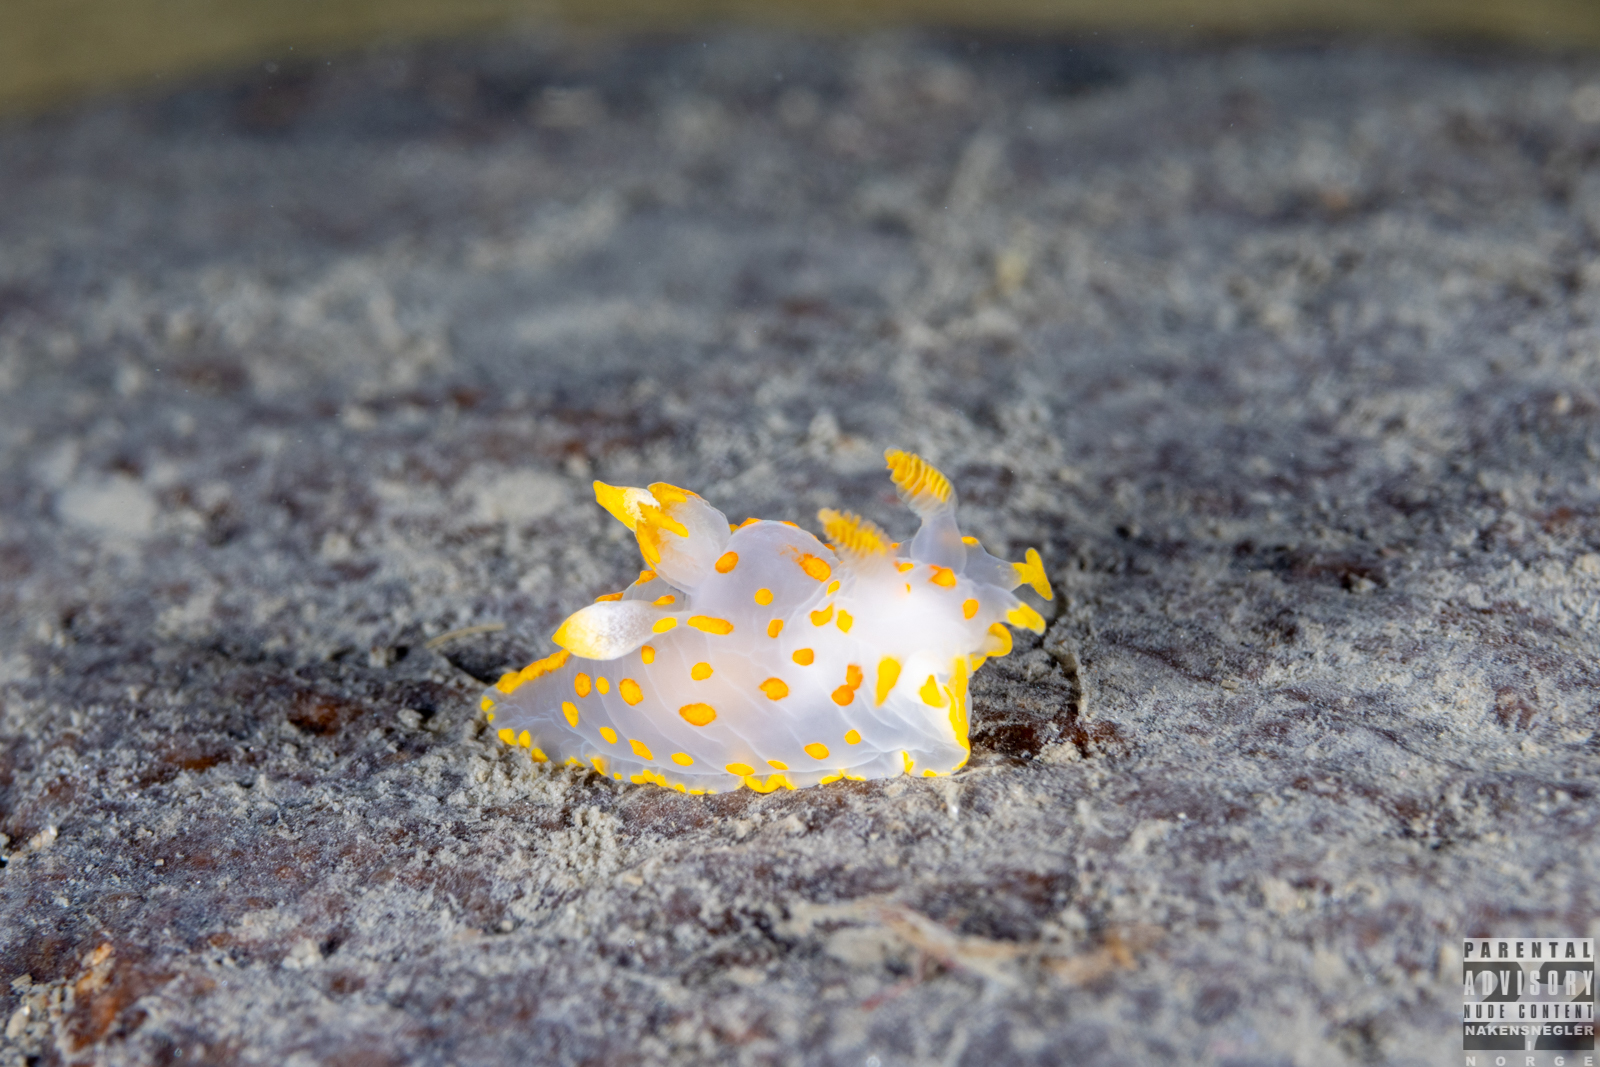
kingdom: Animalia
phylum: Mollusca
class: Gastropoda
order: Nudibranchia
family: Polyceridae
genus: Polycera
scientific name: Polycera quadrilineata
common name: Four-striped polycera
